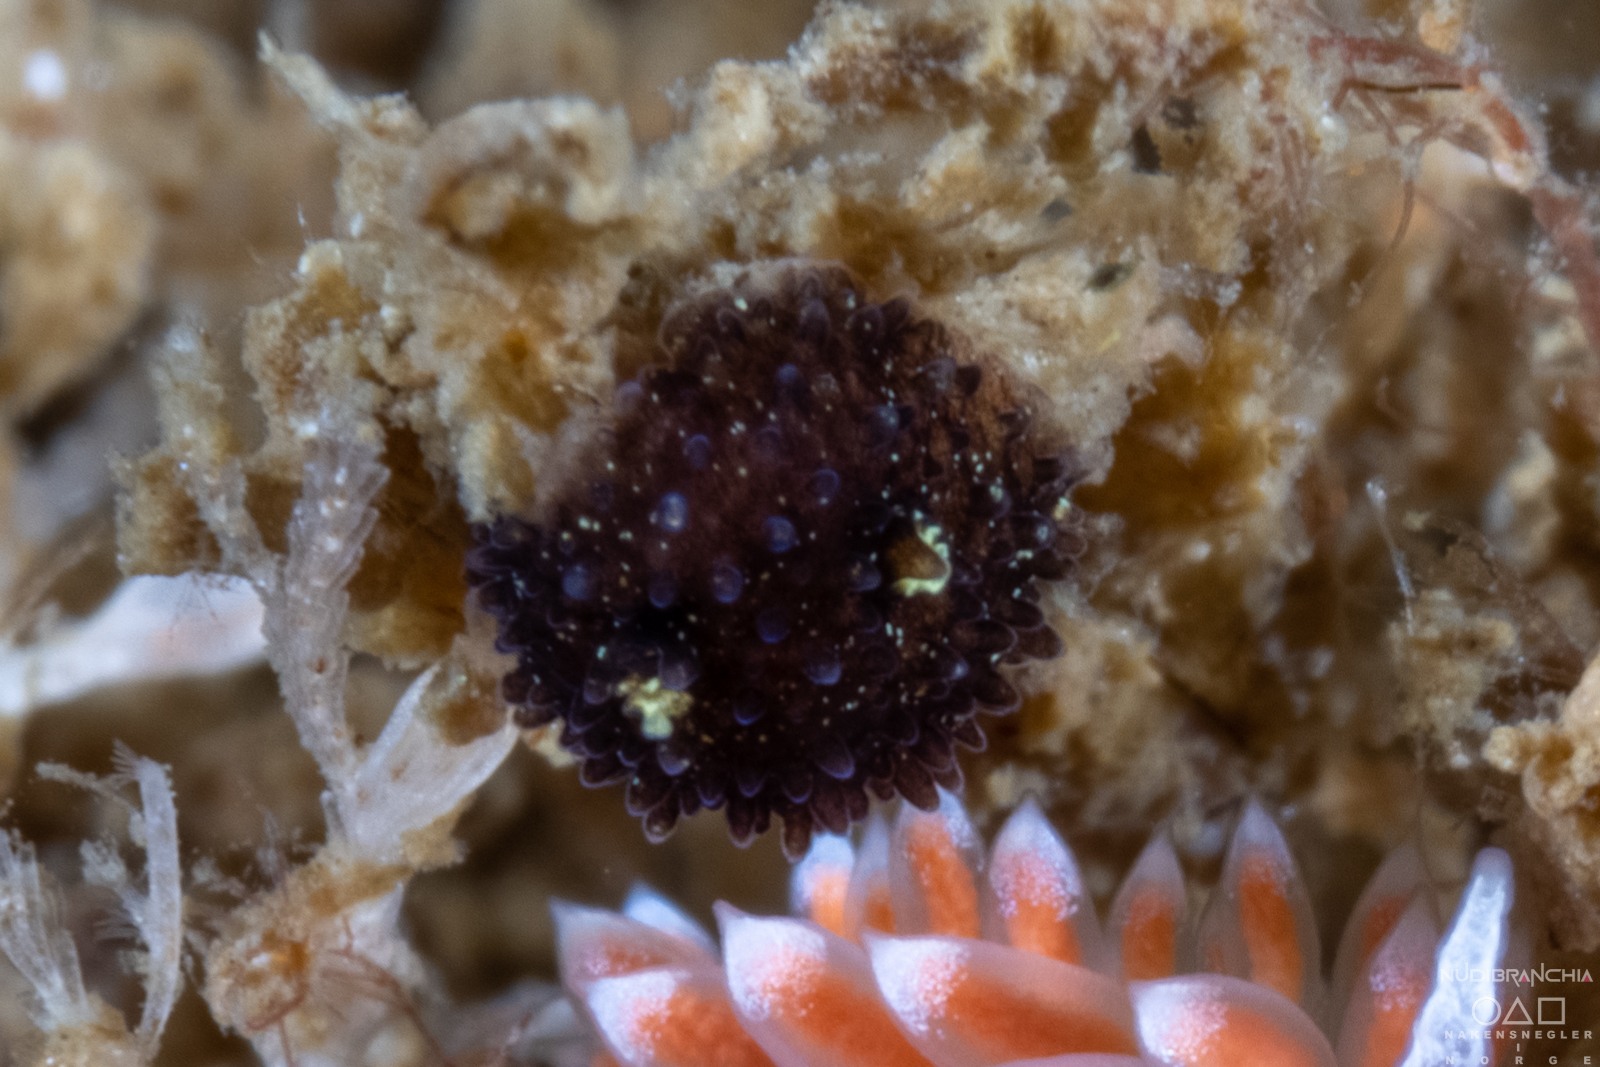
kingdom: Animalia
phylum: Mollusca
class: Gastropoda
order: Nudibranchia
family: Onchidorididae
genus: Acanthodoris
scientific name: Acanthodoris pilosa
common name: Hairy spiny doris
